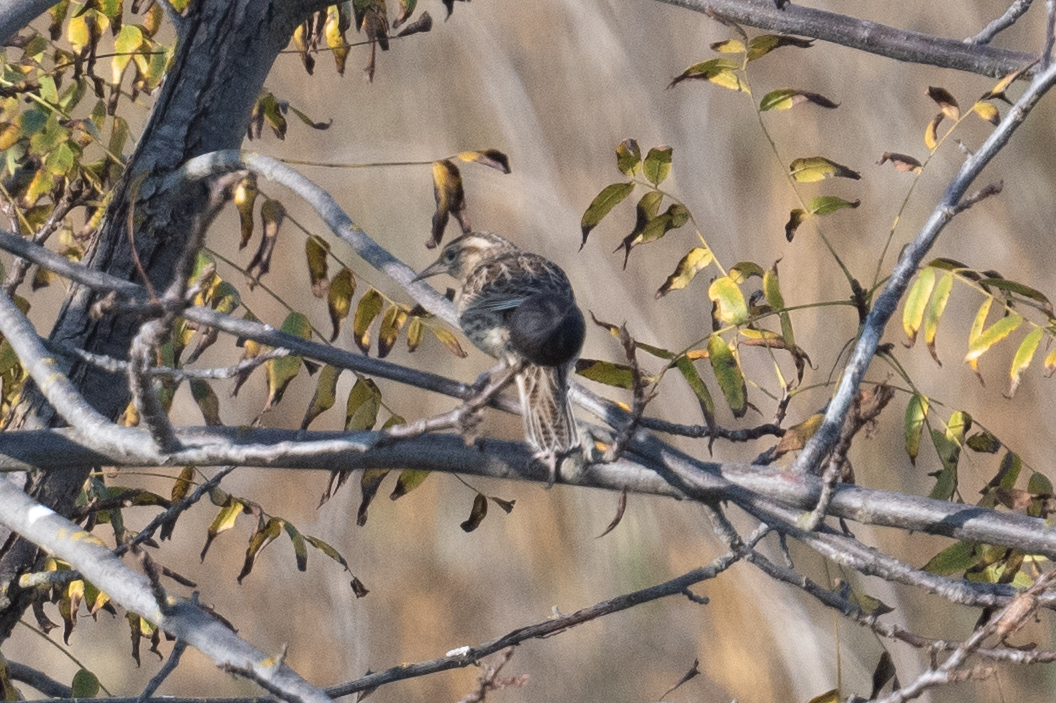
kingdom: Animalia
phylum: Chordata
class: Aves
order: Passeriformes
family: Icteridae
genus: Sturnella
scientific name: Sturnella neglecta
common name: Western meadowlark
